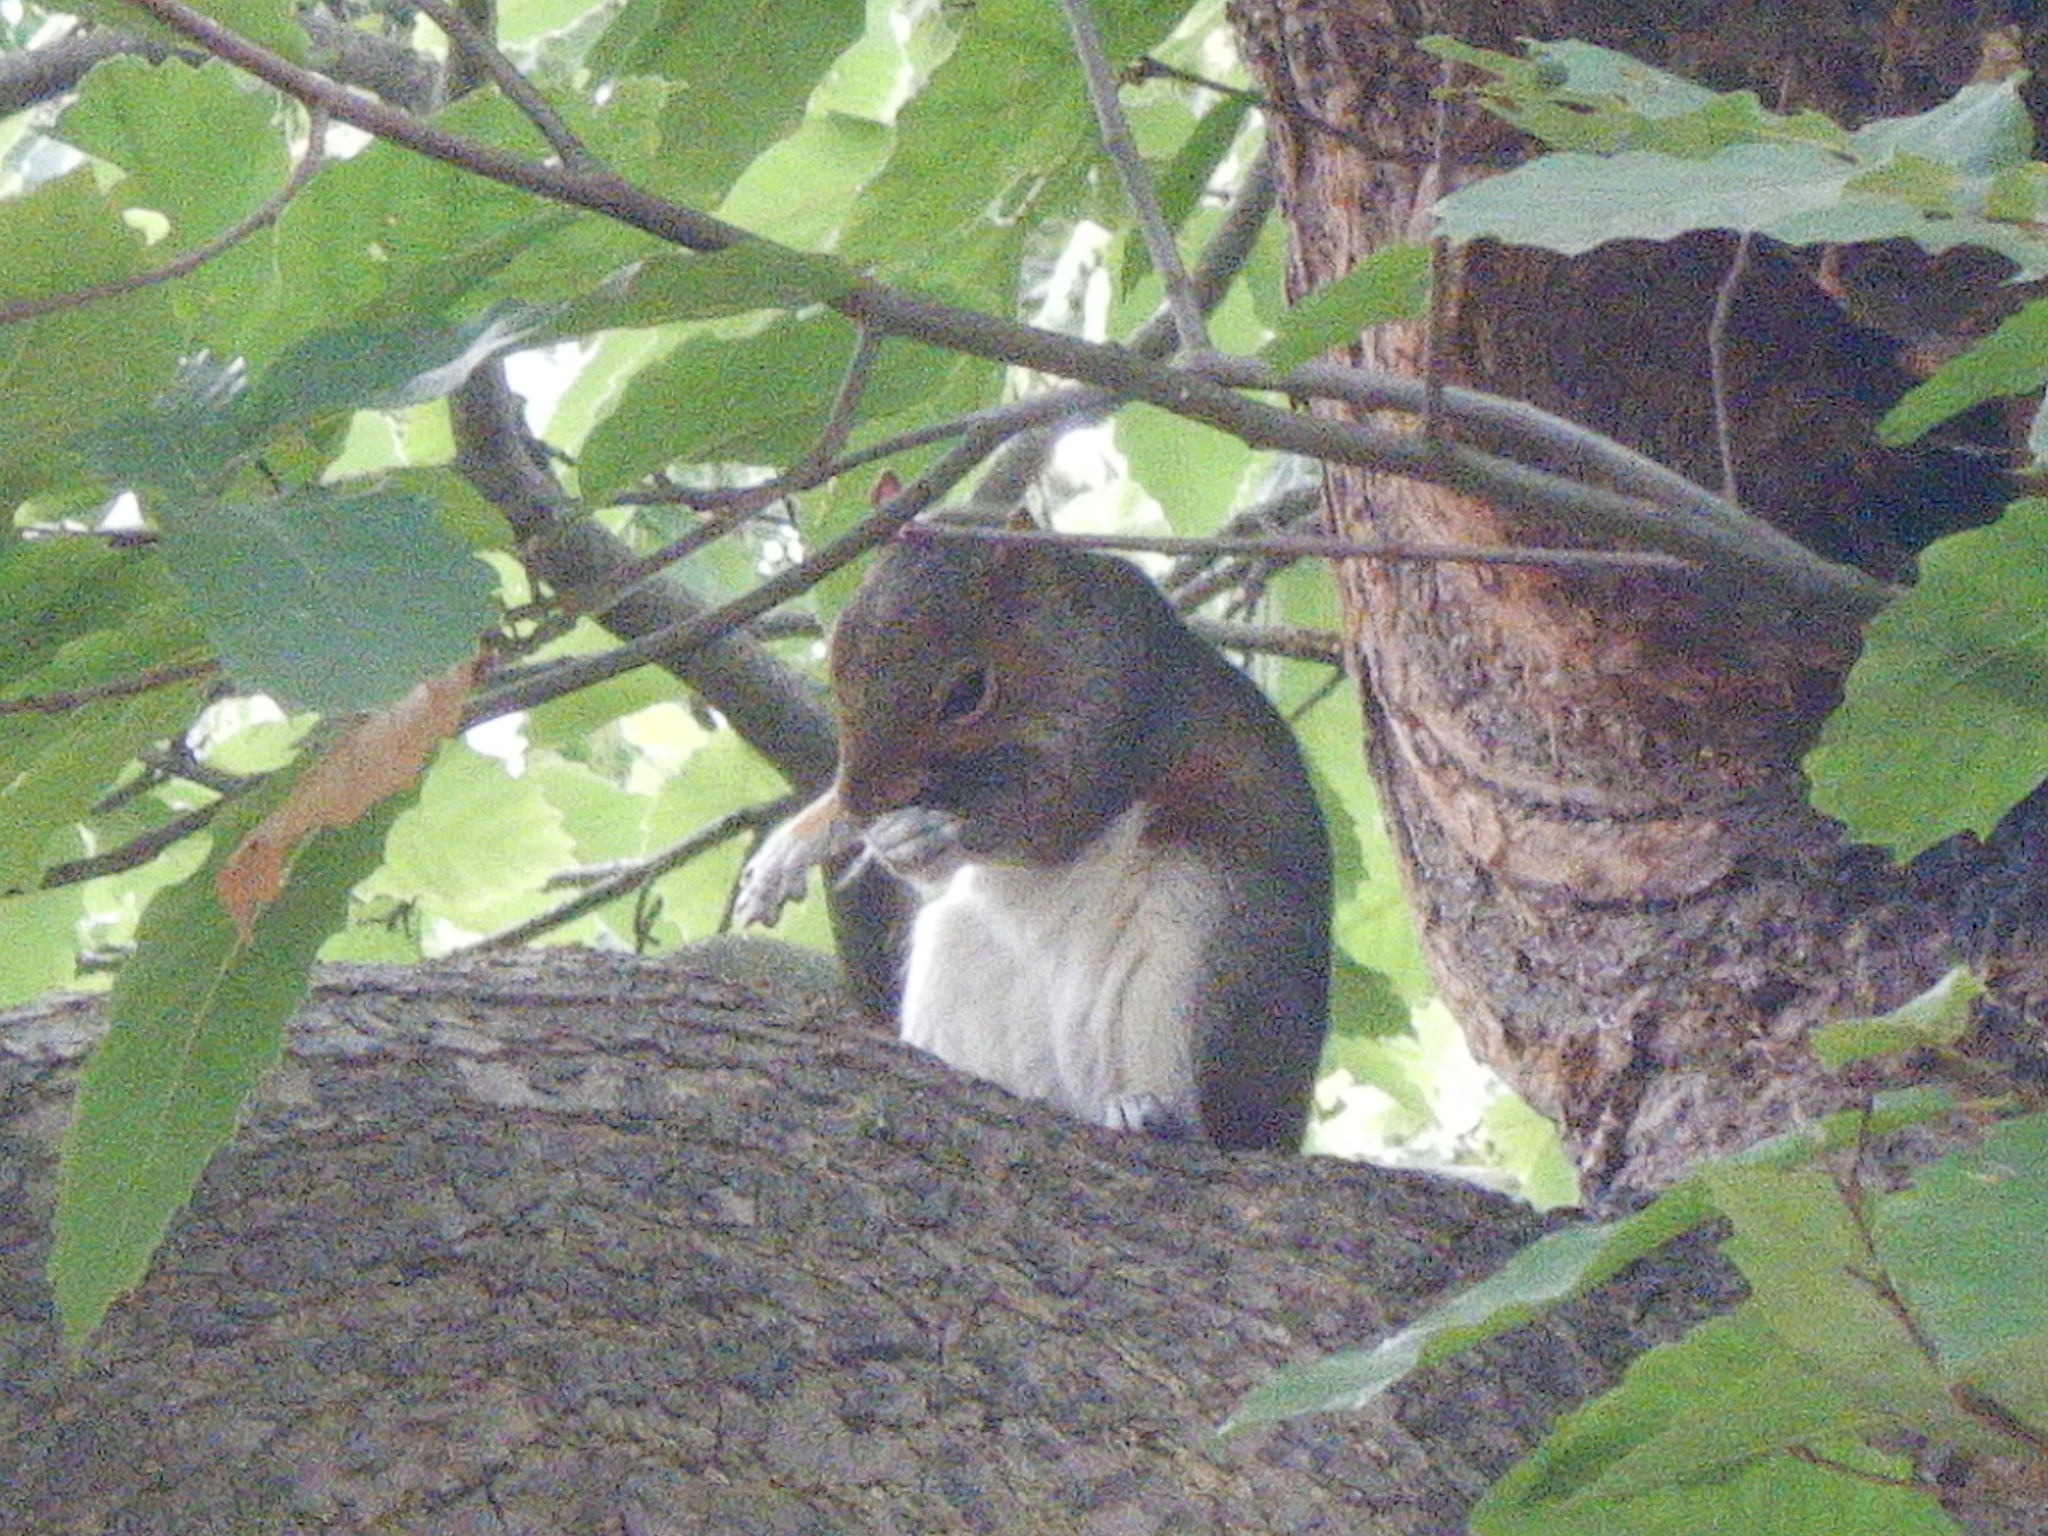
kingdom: Animalia
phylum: Chordata
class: Mammalia
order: Rodentia
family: Sciuridae
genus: Sciurus
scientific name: Sciurus carolinensis
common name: Eastern gray squirrel
